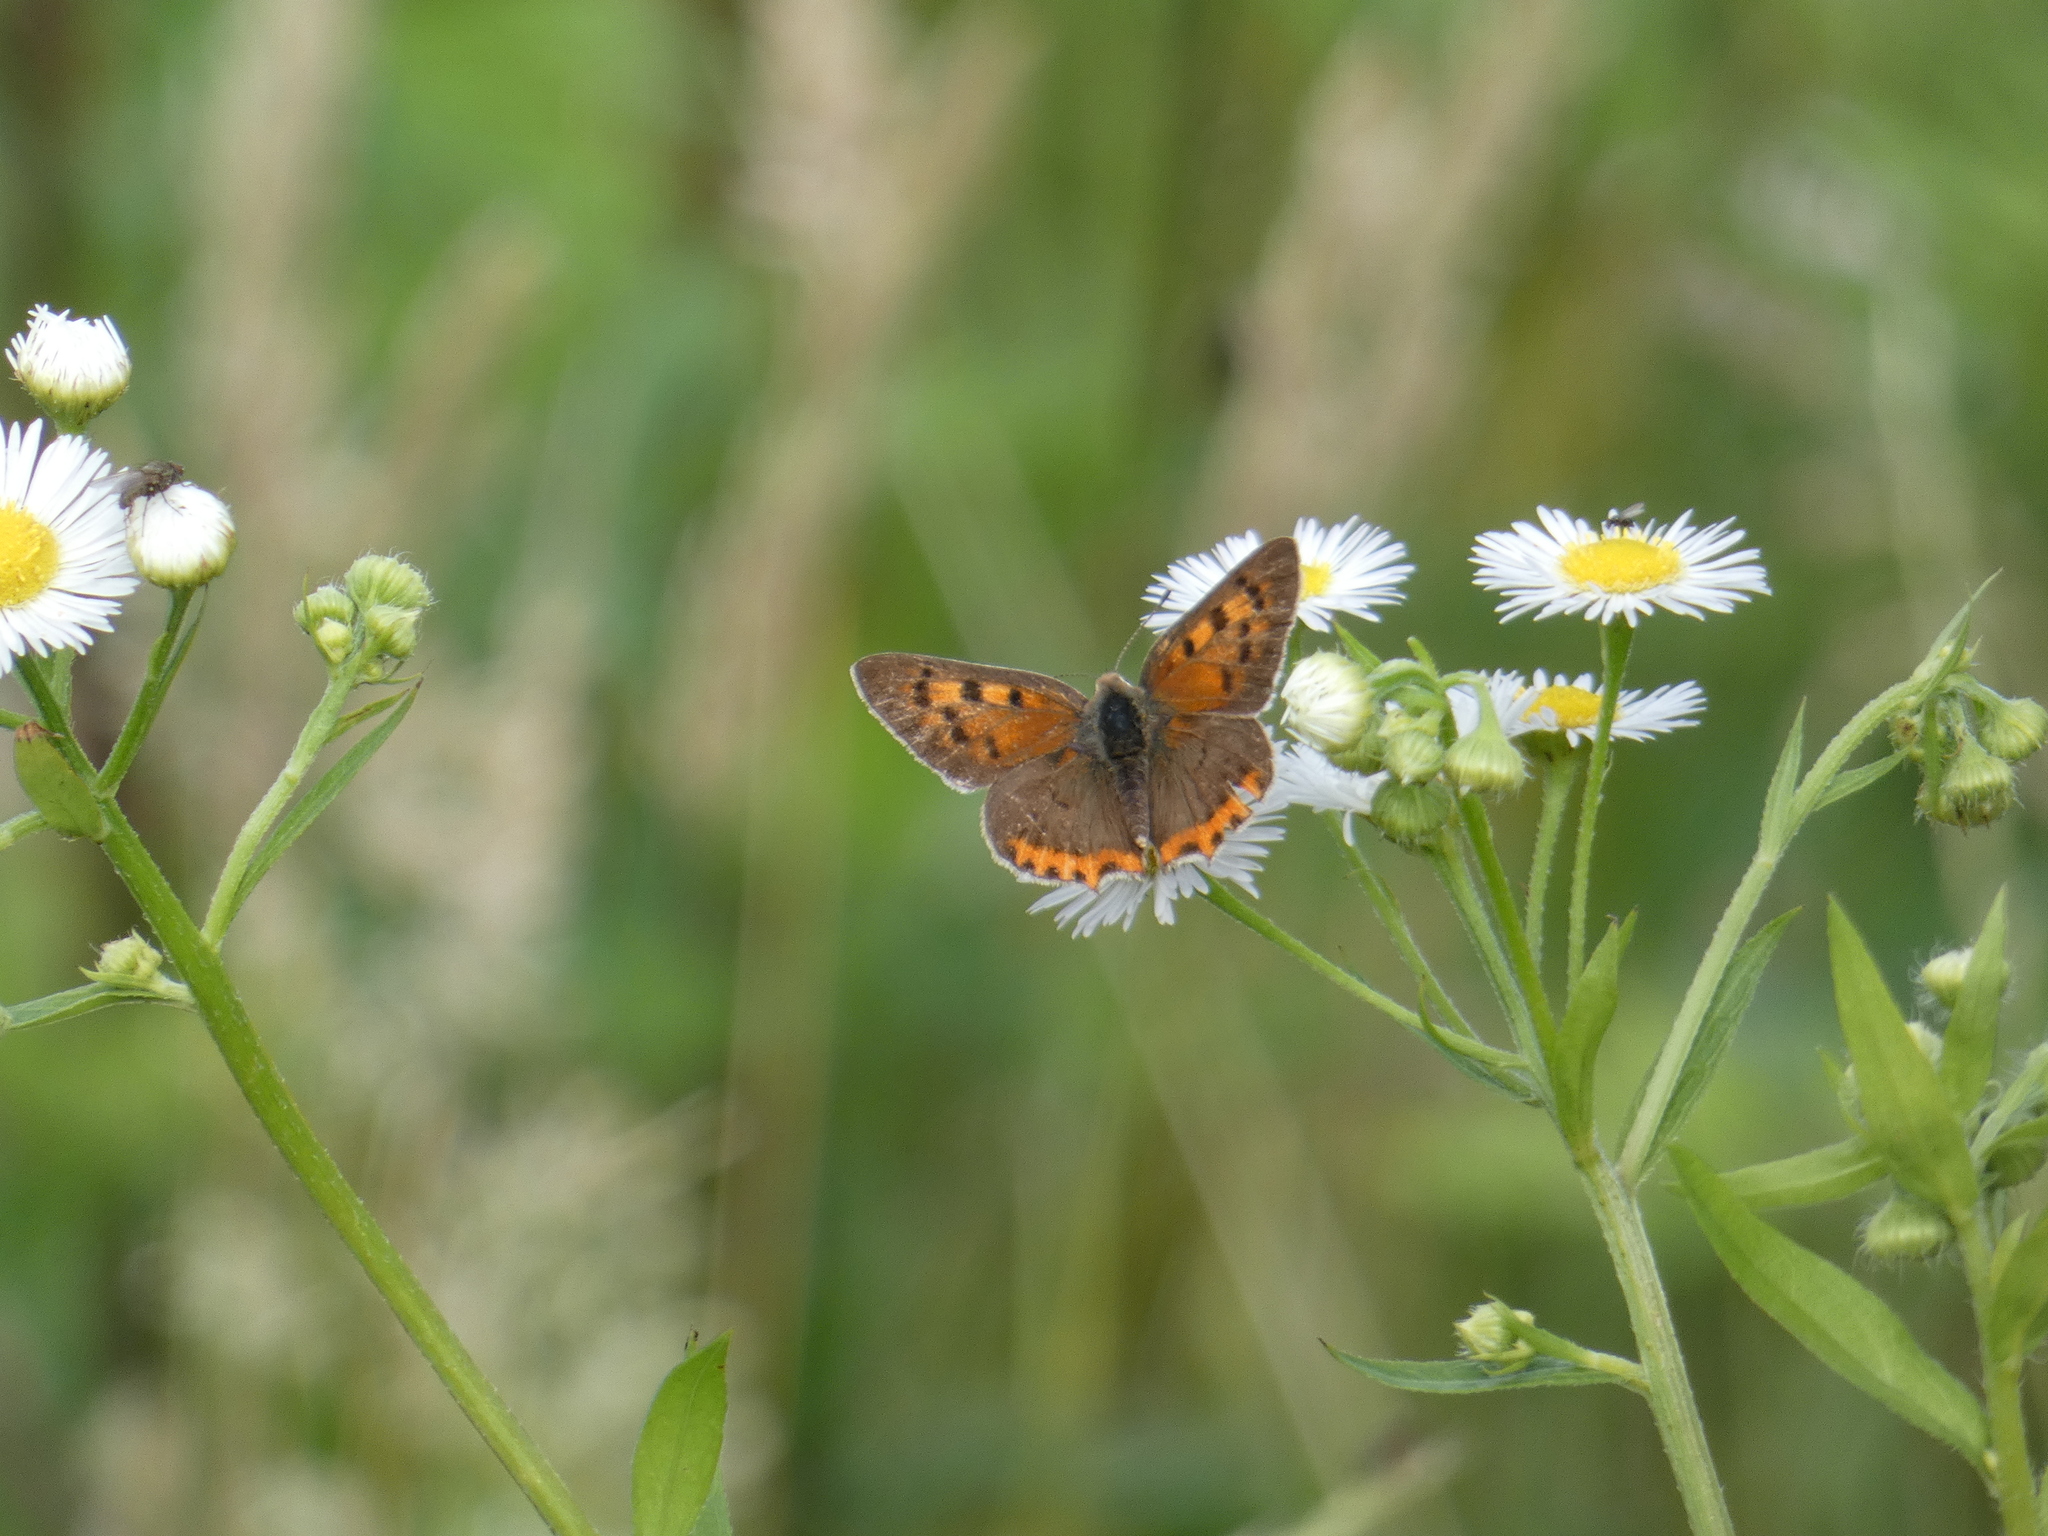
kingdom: Animalia
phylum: Arthropoda
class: Insecta
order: Lepidoptera
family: Lycaenidae
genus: Lycaena
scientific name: Lycaena phlaeas
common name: Small copper
